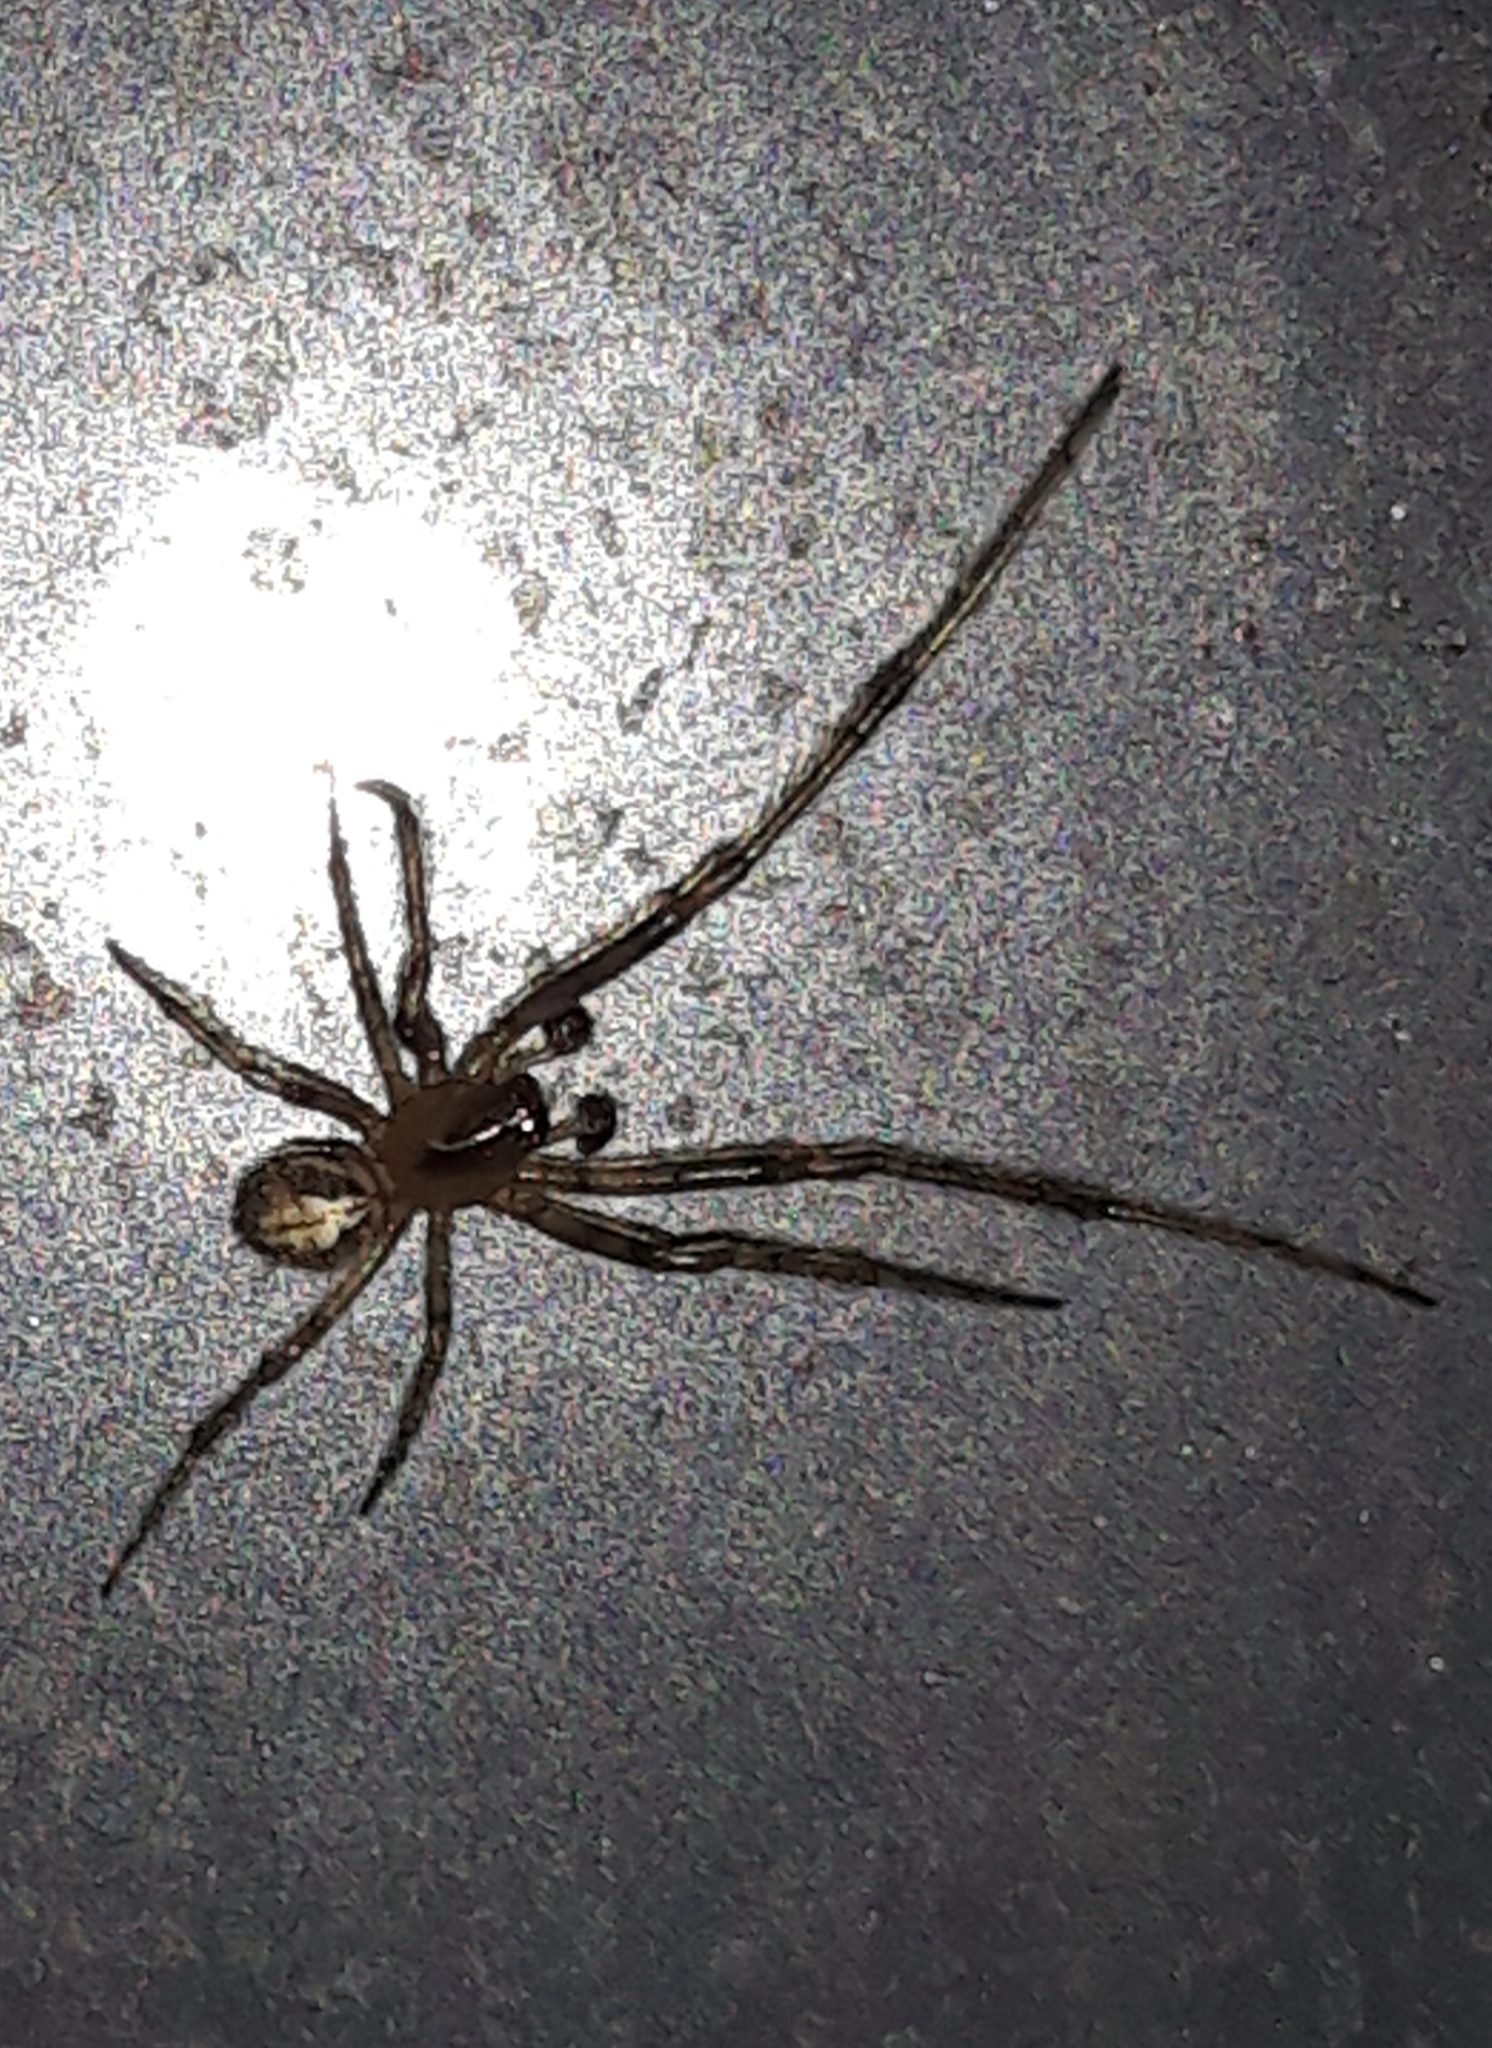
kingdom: Animalia
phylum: Arthropoda
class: Arachnida
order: Araneae
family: Araneidae
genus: Zygiella
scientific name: Zygiella x-notata
